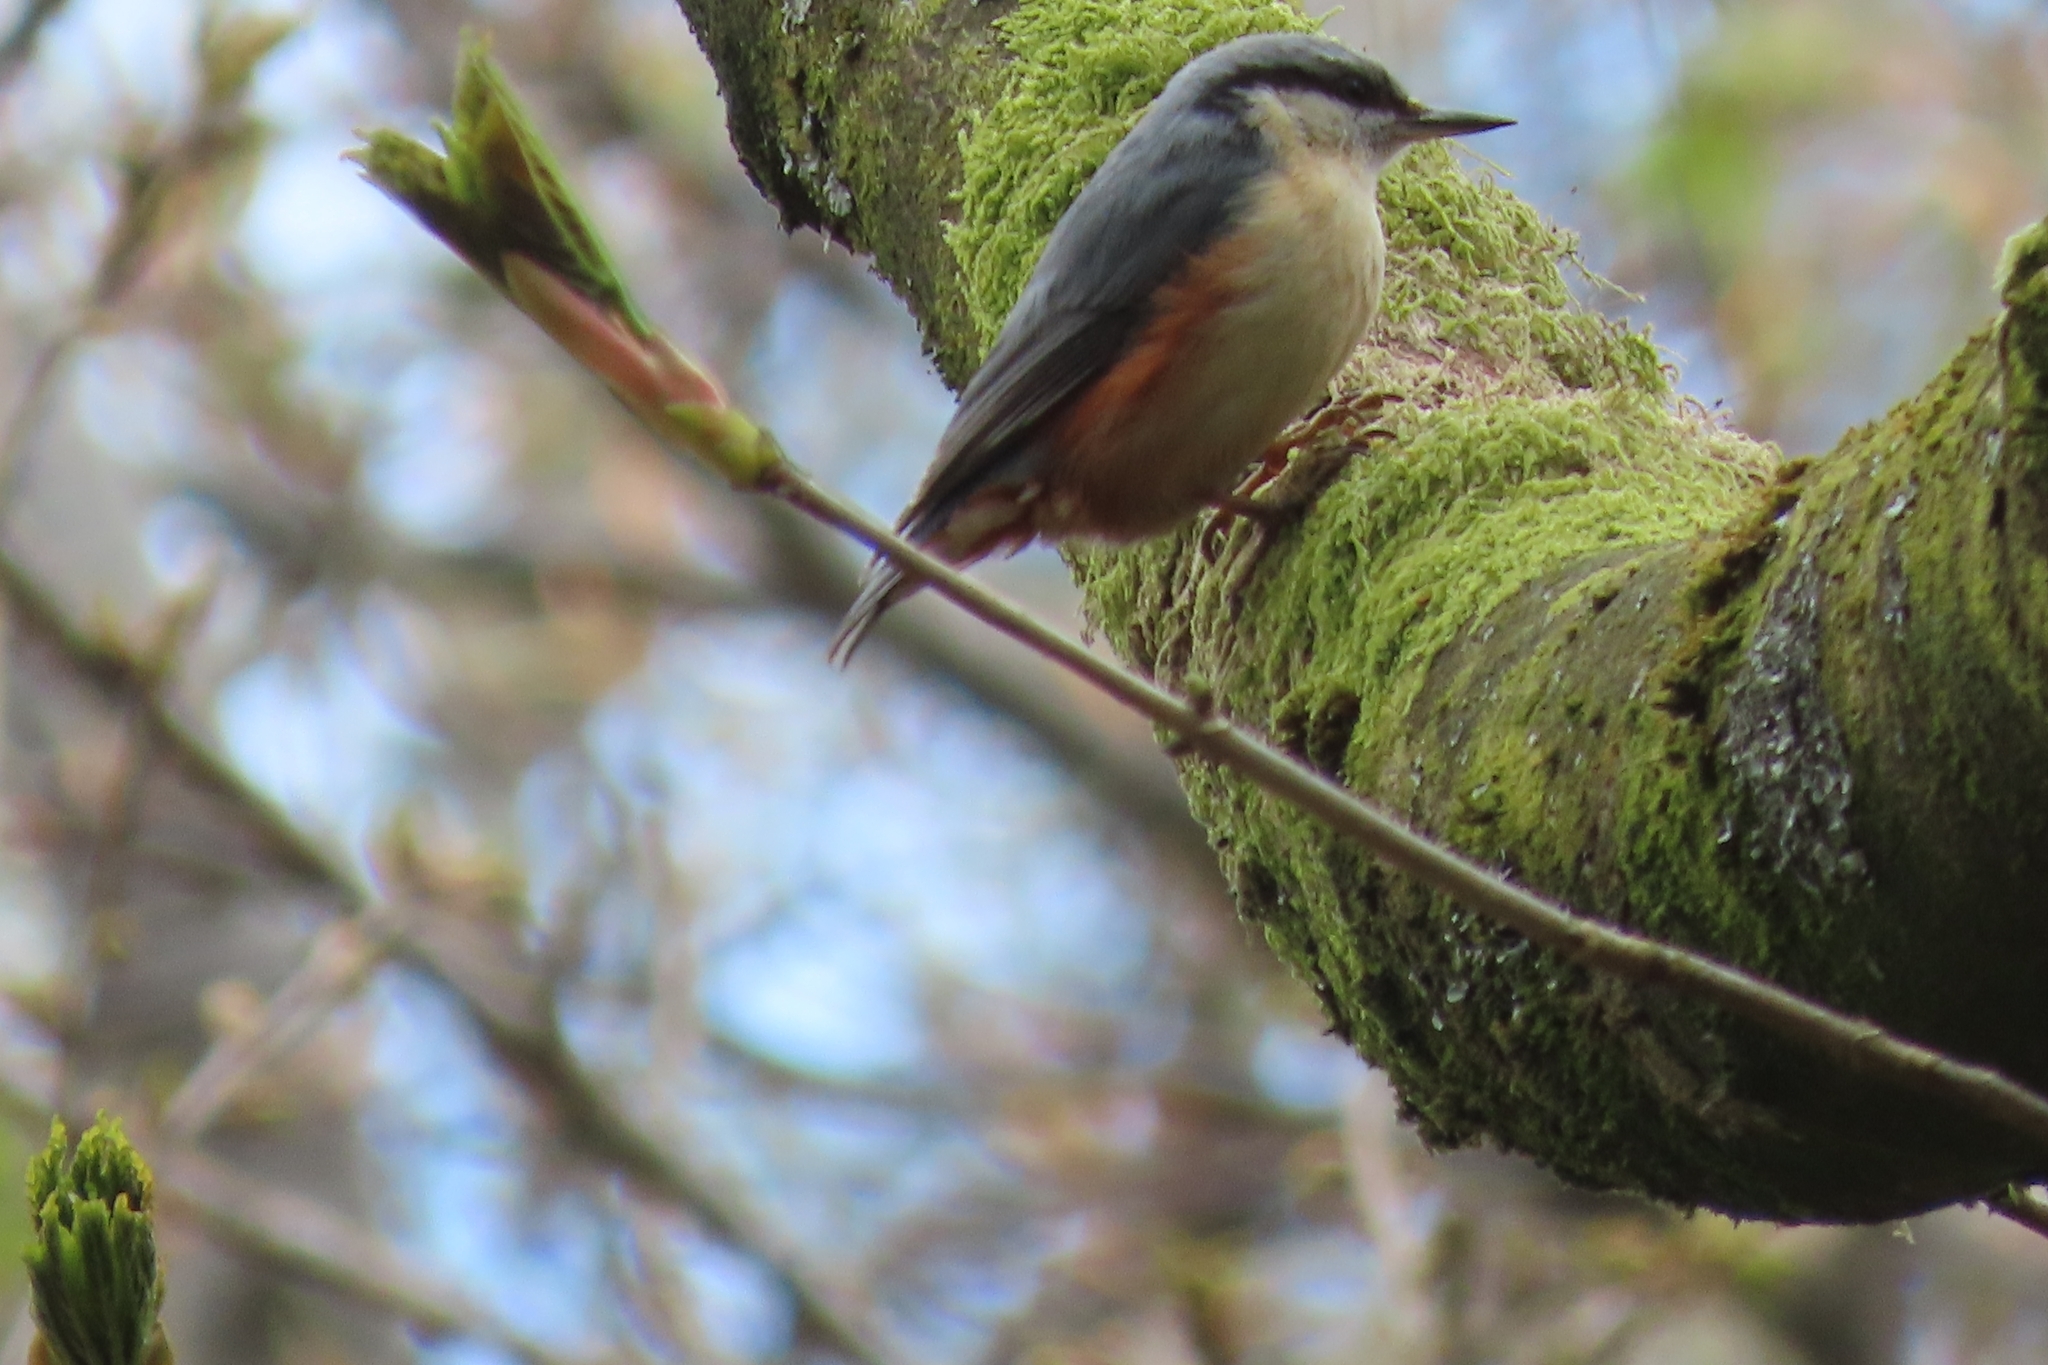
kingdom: Animalia
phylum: Chordata
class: Aves
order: Passeriformes
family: Sittidae
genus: Sitta
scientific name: Sitta europaea
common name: Eurasian nuthatch
